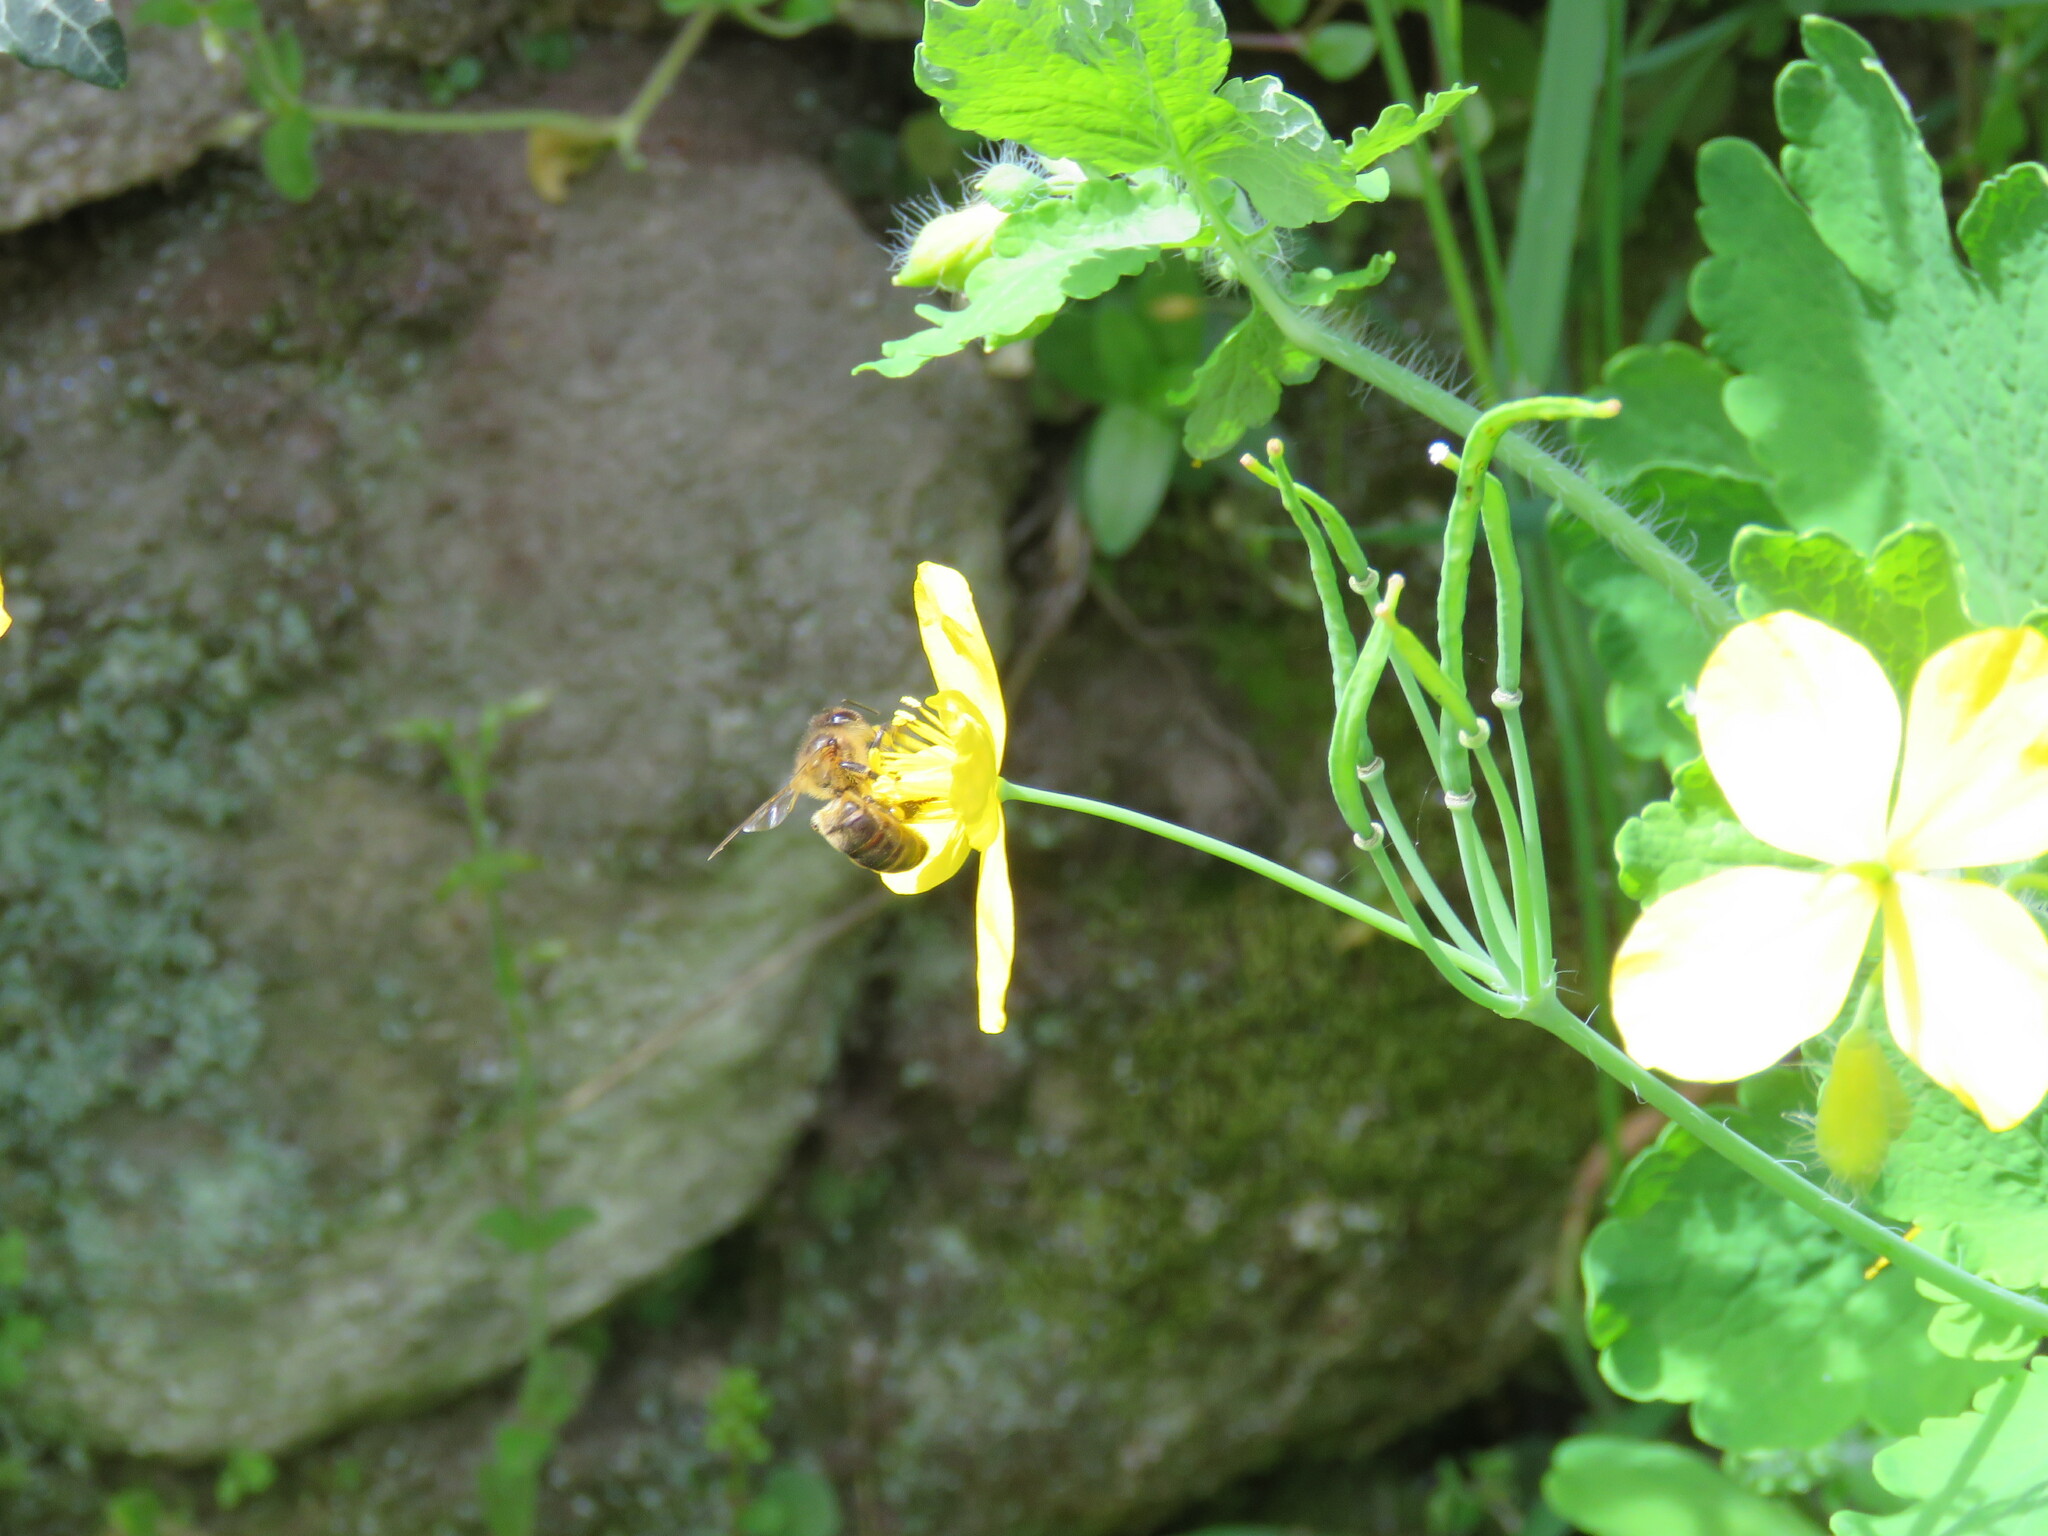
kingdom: Animalia
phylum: Arthropoda
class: Insecta
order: Hymenoptera
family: Apidae
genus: Apis
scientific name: Apis mellifera
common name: Honey bee
